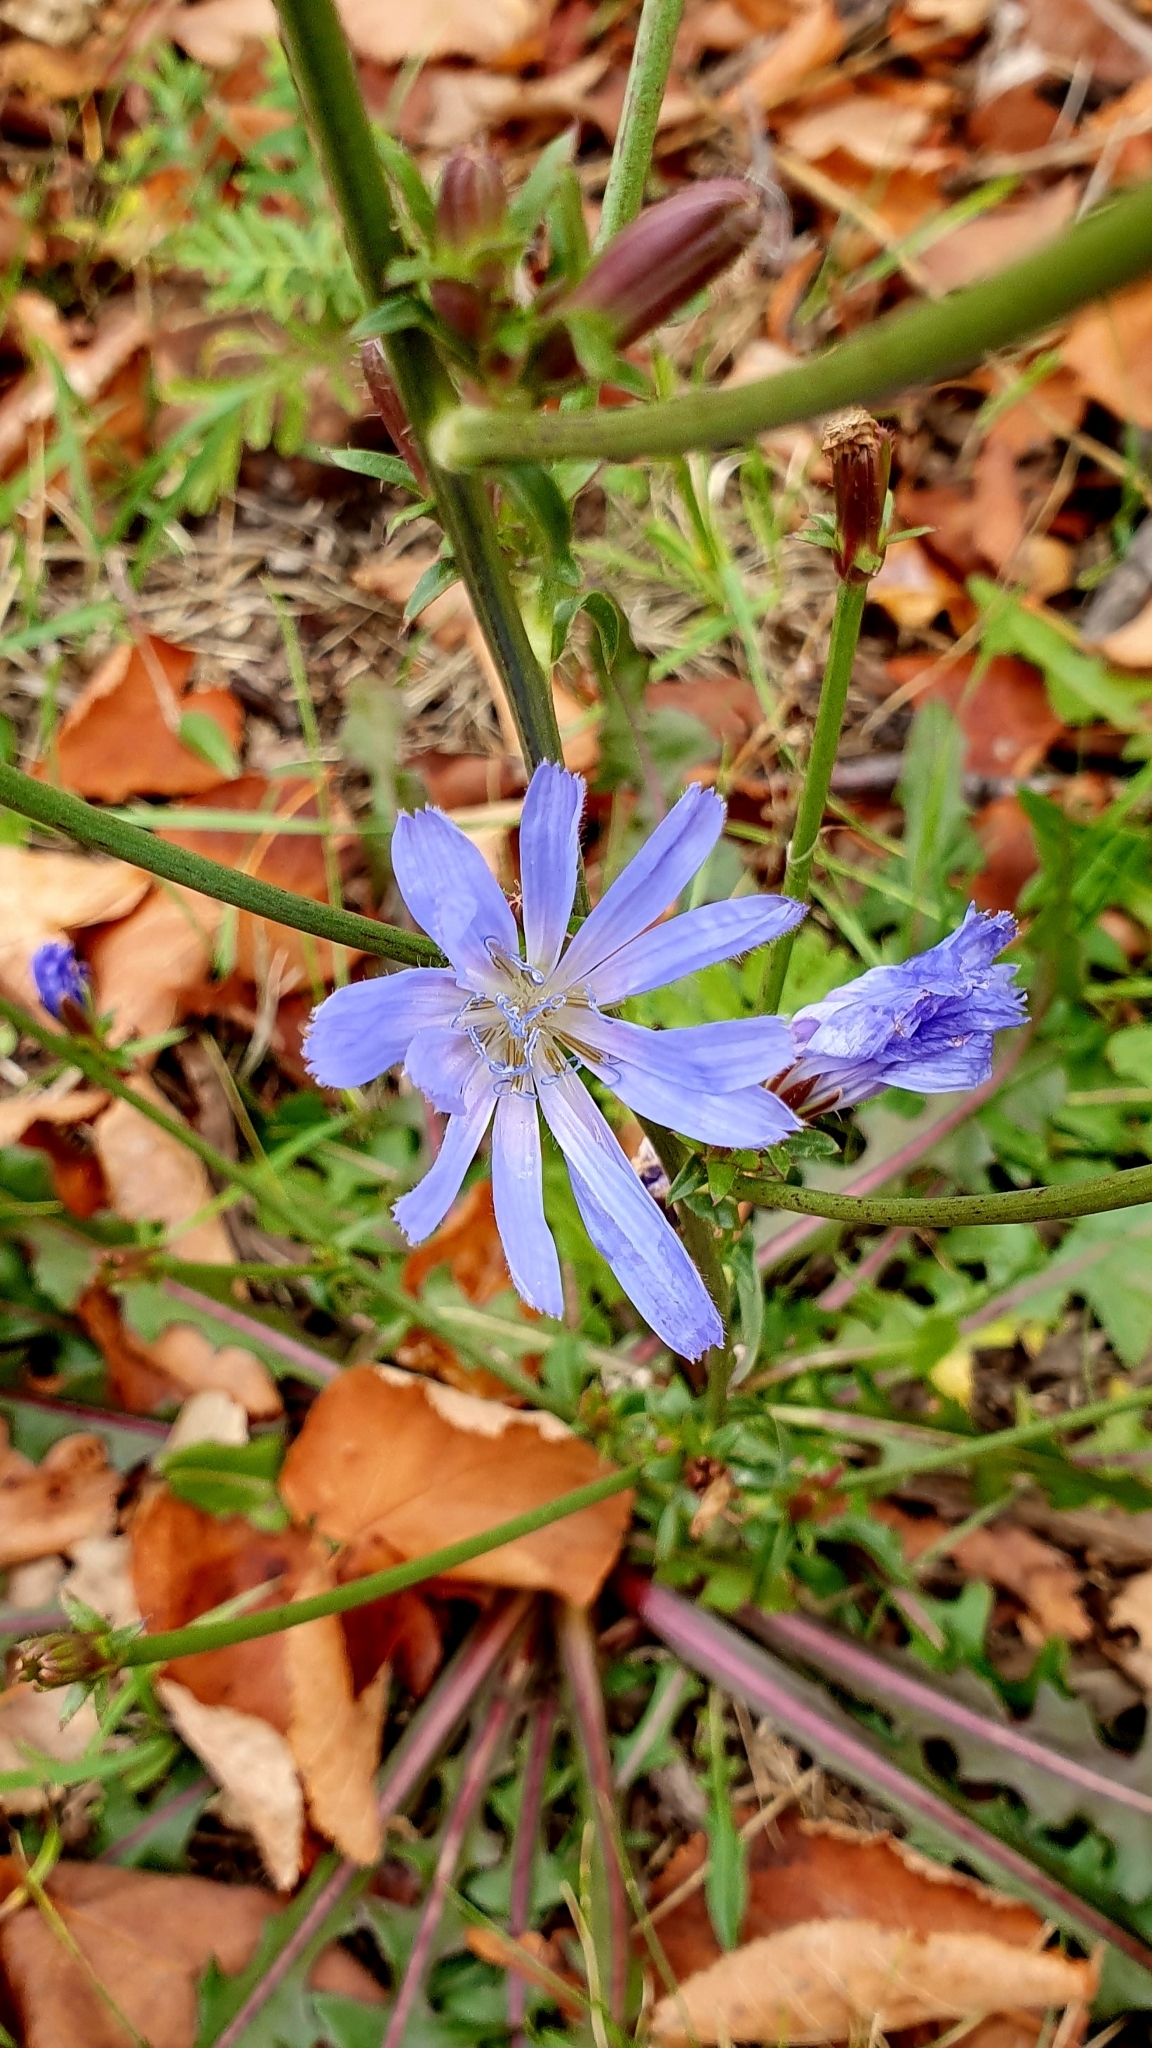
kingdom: Plantae
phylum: Tracheophyta
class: Magnoliopsida
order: Asterales
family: Asteraceae
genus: Cichorium
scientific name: Cichorium intybus
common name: Chicory
